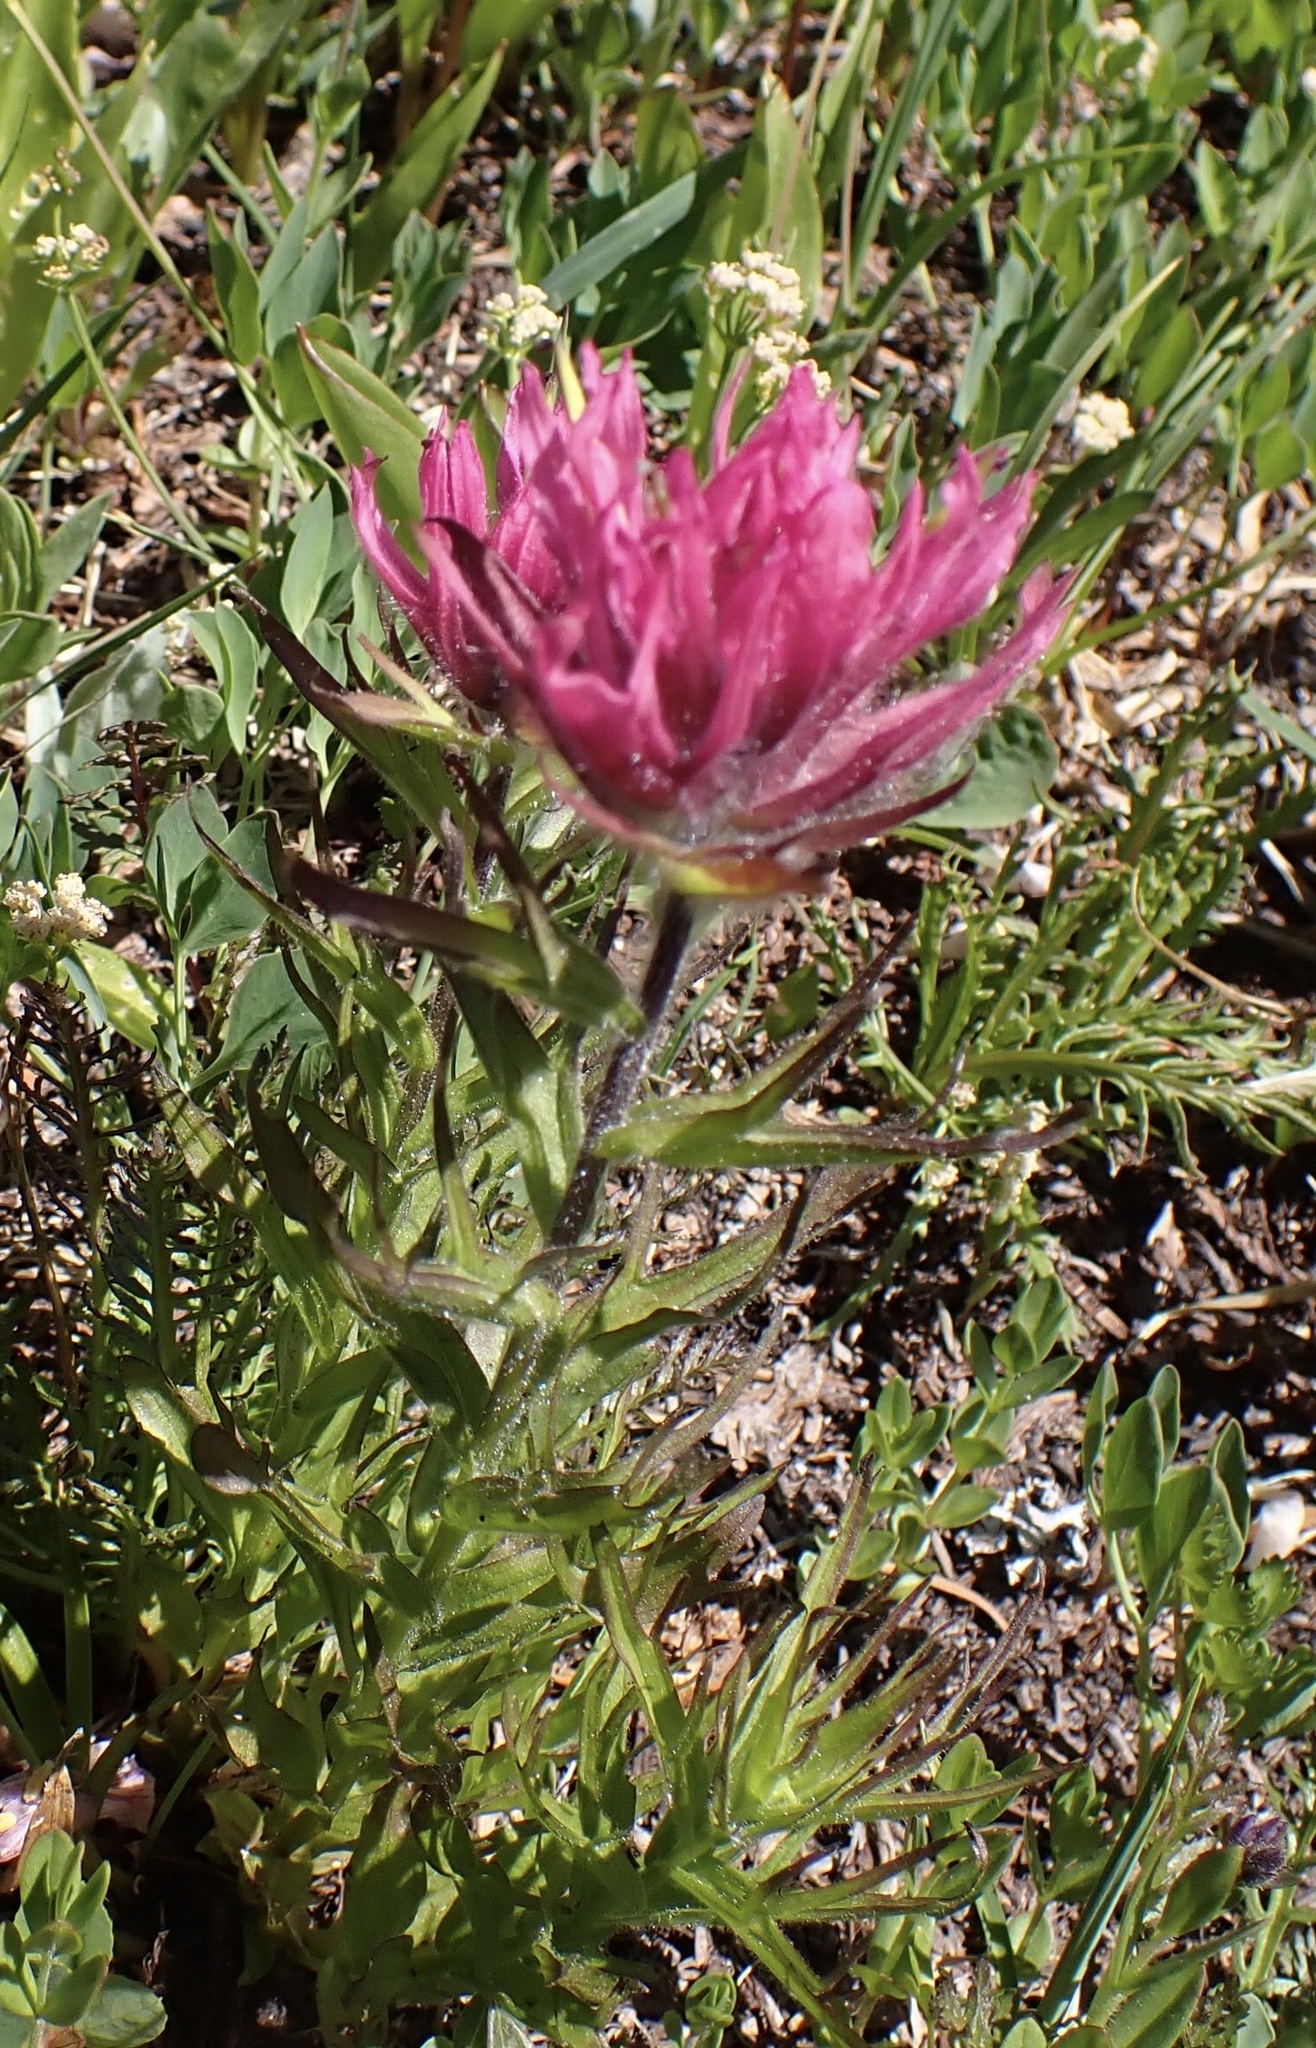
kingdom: Plantae
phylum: Tracheophyta
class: Magnoliopsida
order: Lamiales
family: Orobanchaceae
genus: Castilleja
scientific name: Castilleja parviflora
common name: Mountain paintbrush
